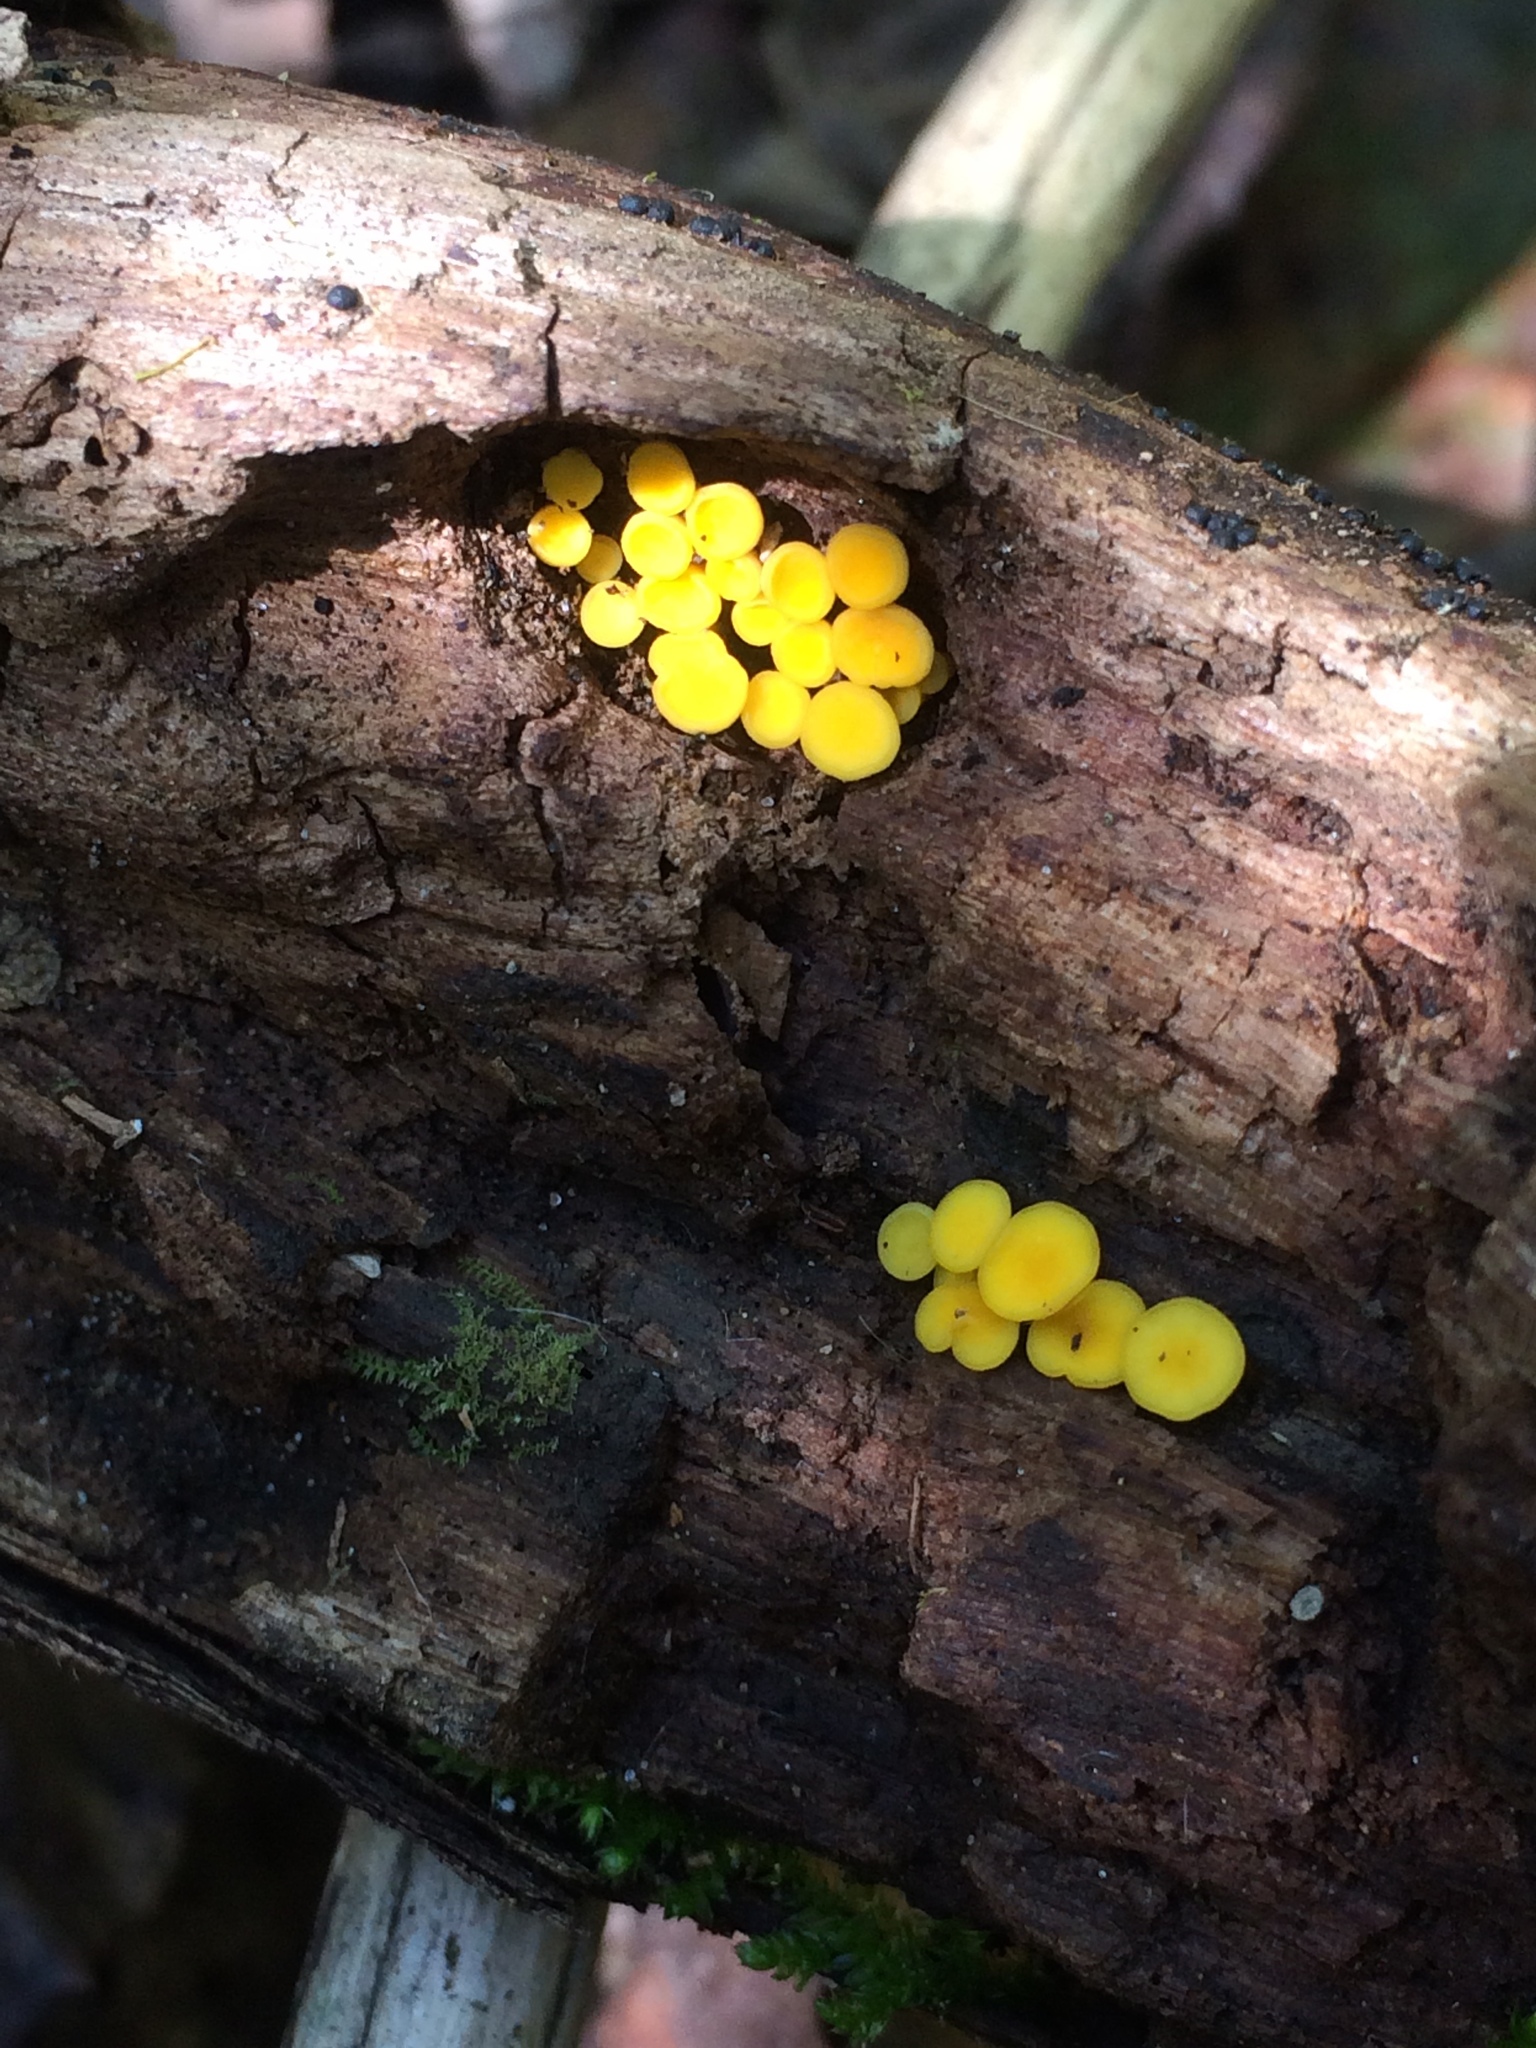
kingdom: Fungi
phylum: Ascomycota
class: Leotiomycetes
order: Helotiales
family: Pezizellaceae
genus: Calycina
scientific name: Calycina citrina
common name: Yellow fairy cups
